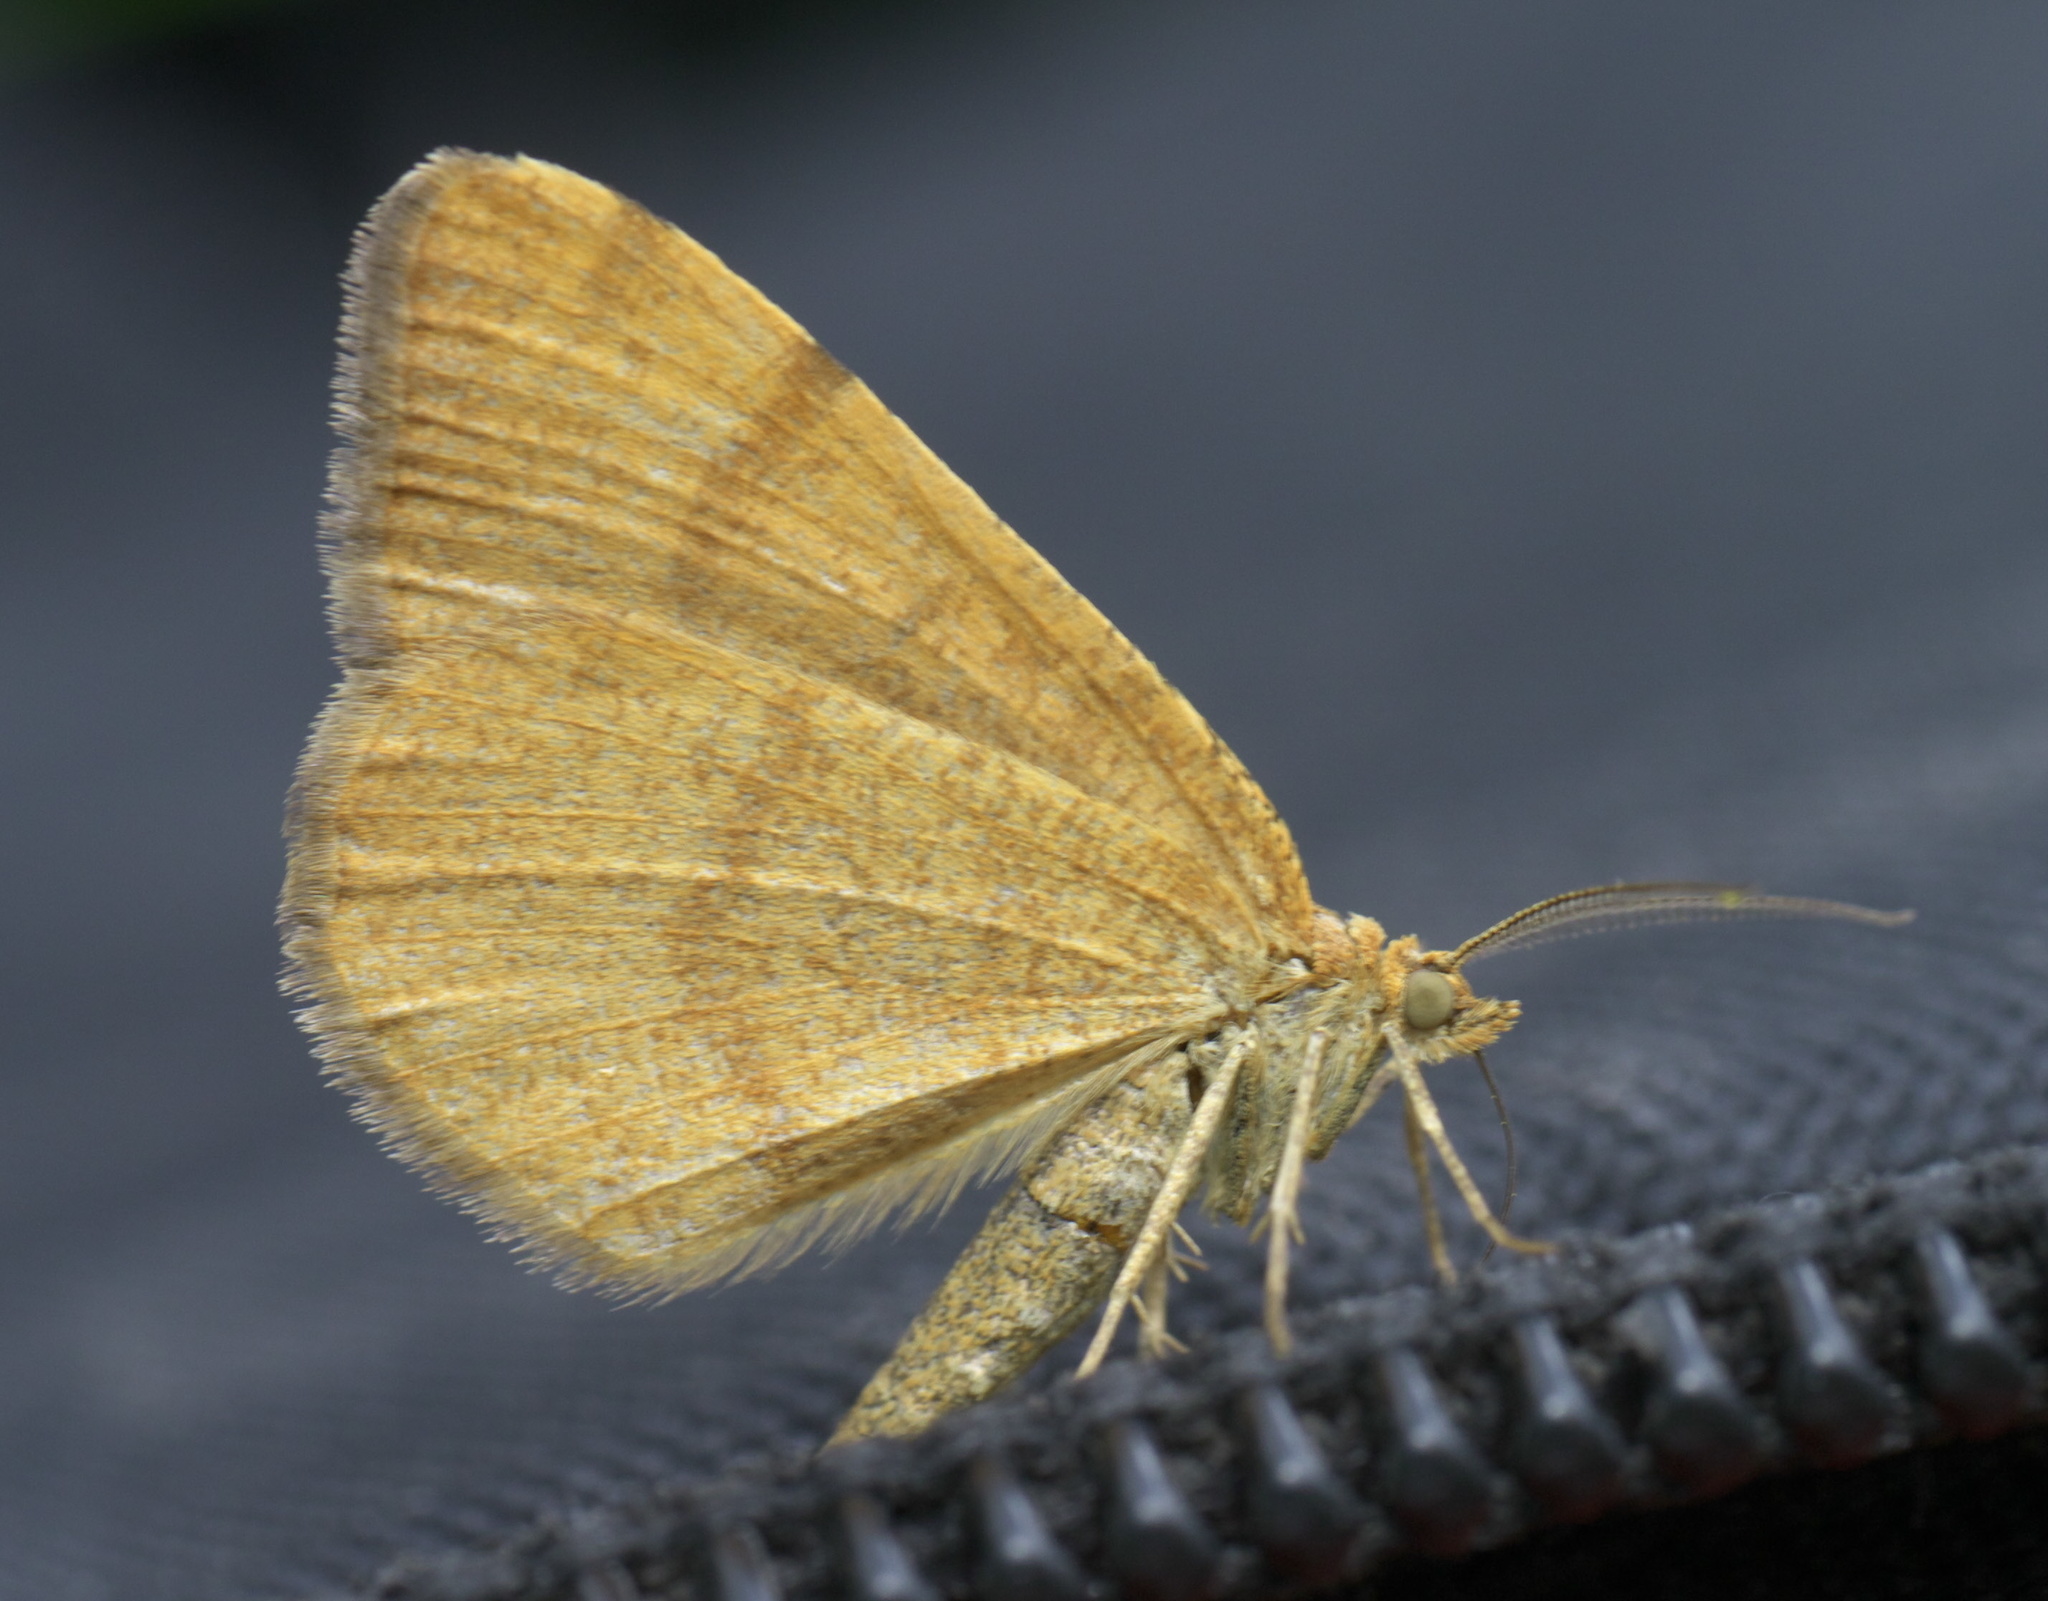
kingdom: Animalia
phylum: Arthropoda
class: Insecta
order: Lepidoptera
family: Geometridae
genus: Macaria
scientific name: Macaria brunneata
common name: Rannoch looper
